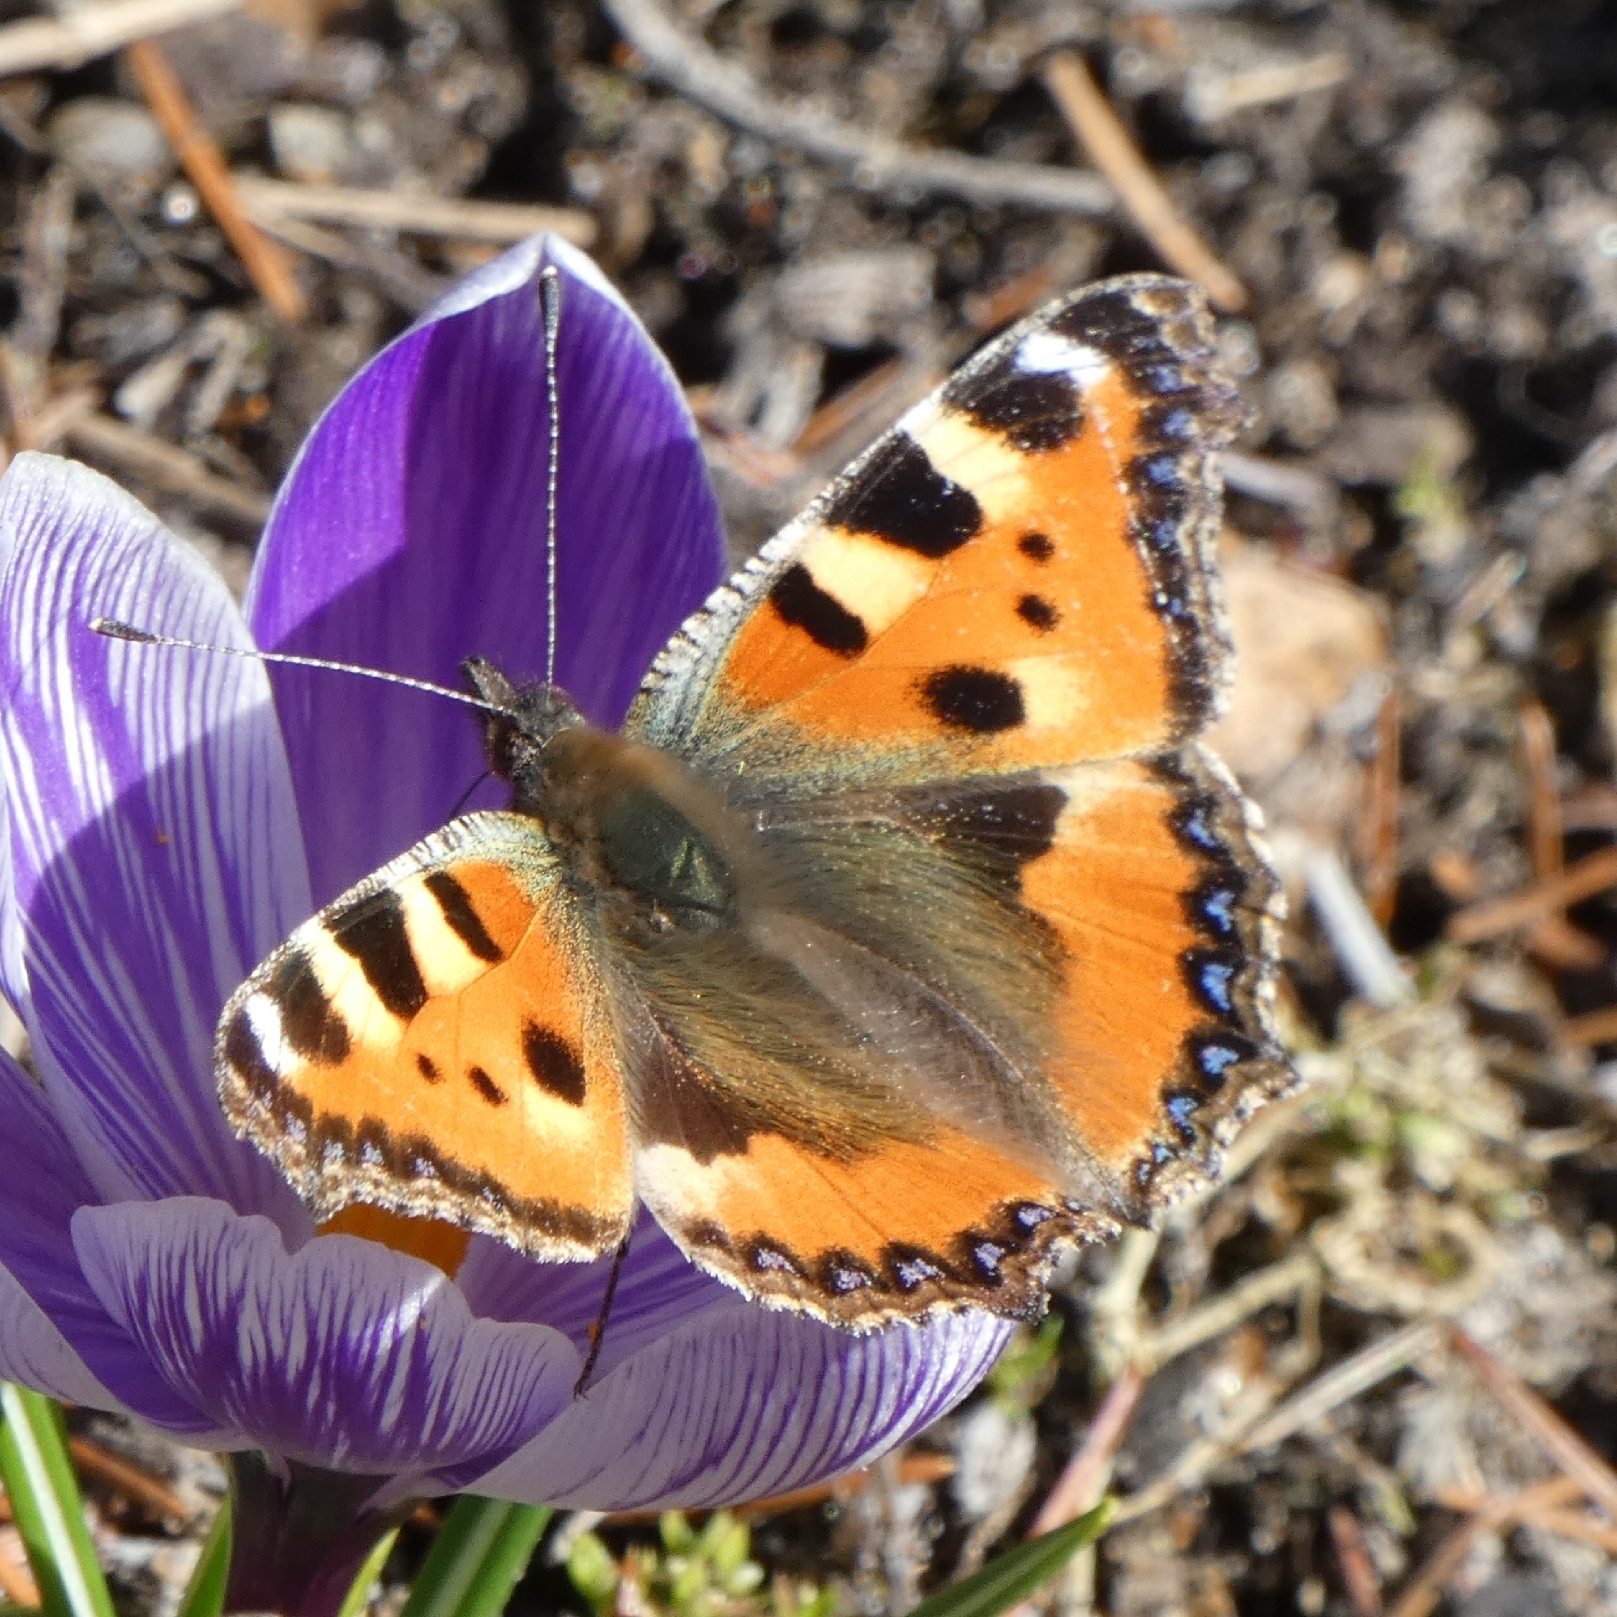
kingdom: Animalia
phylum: Arthropoda
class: Insecta
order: Lepidoptera
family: Nymphalidae
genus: Aglais
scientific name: Aglais urticae
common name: Small tortoiseshell
